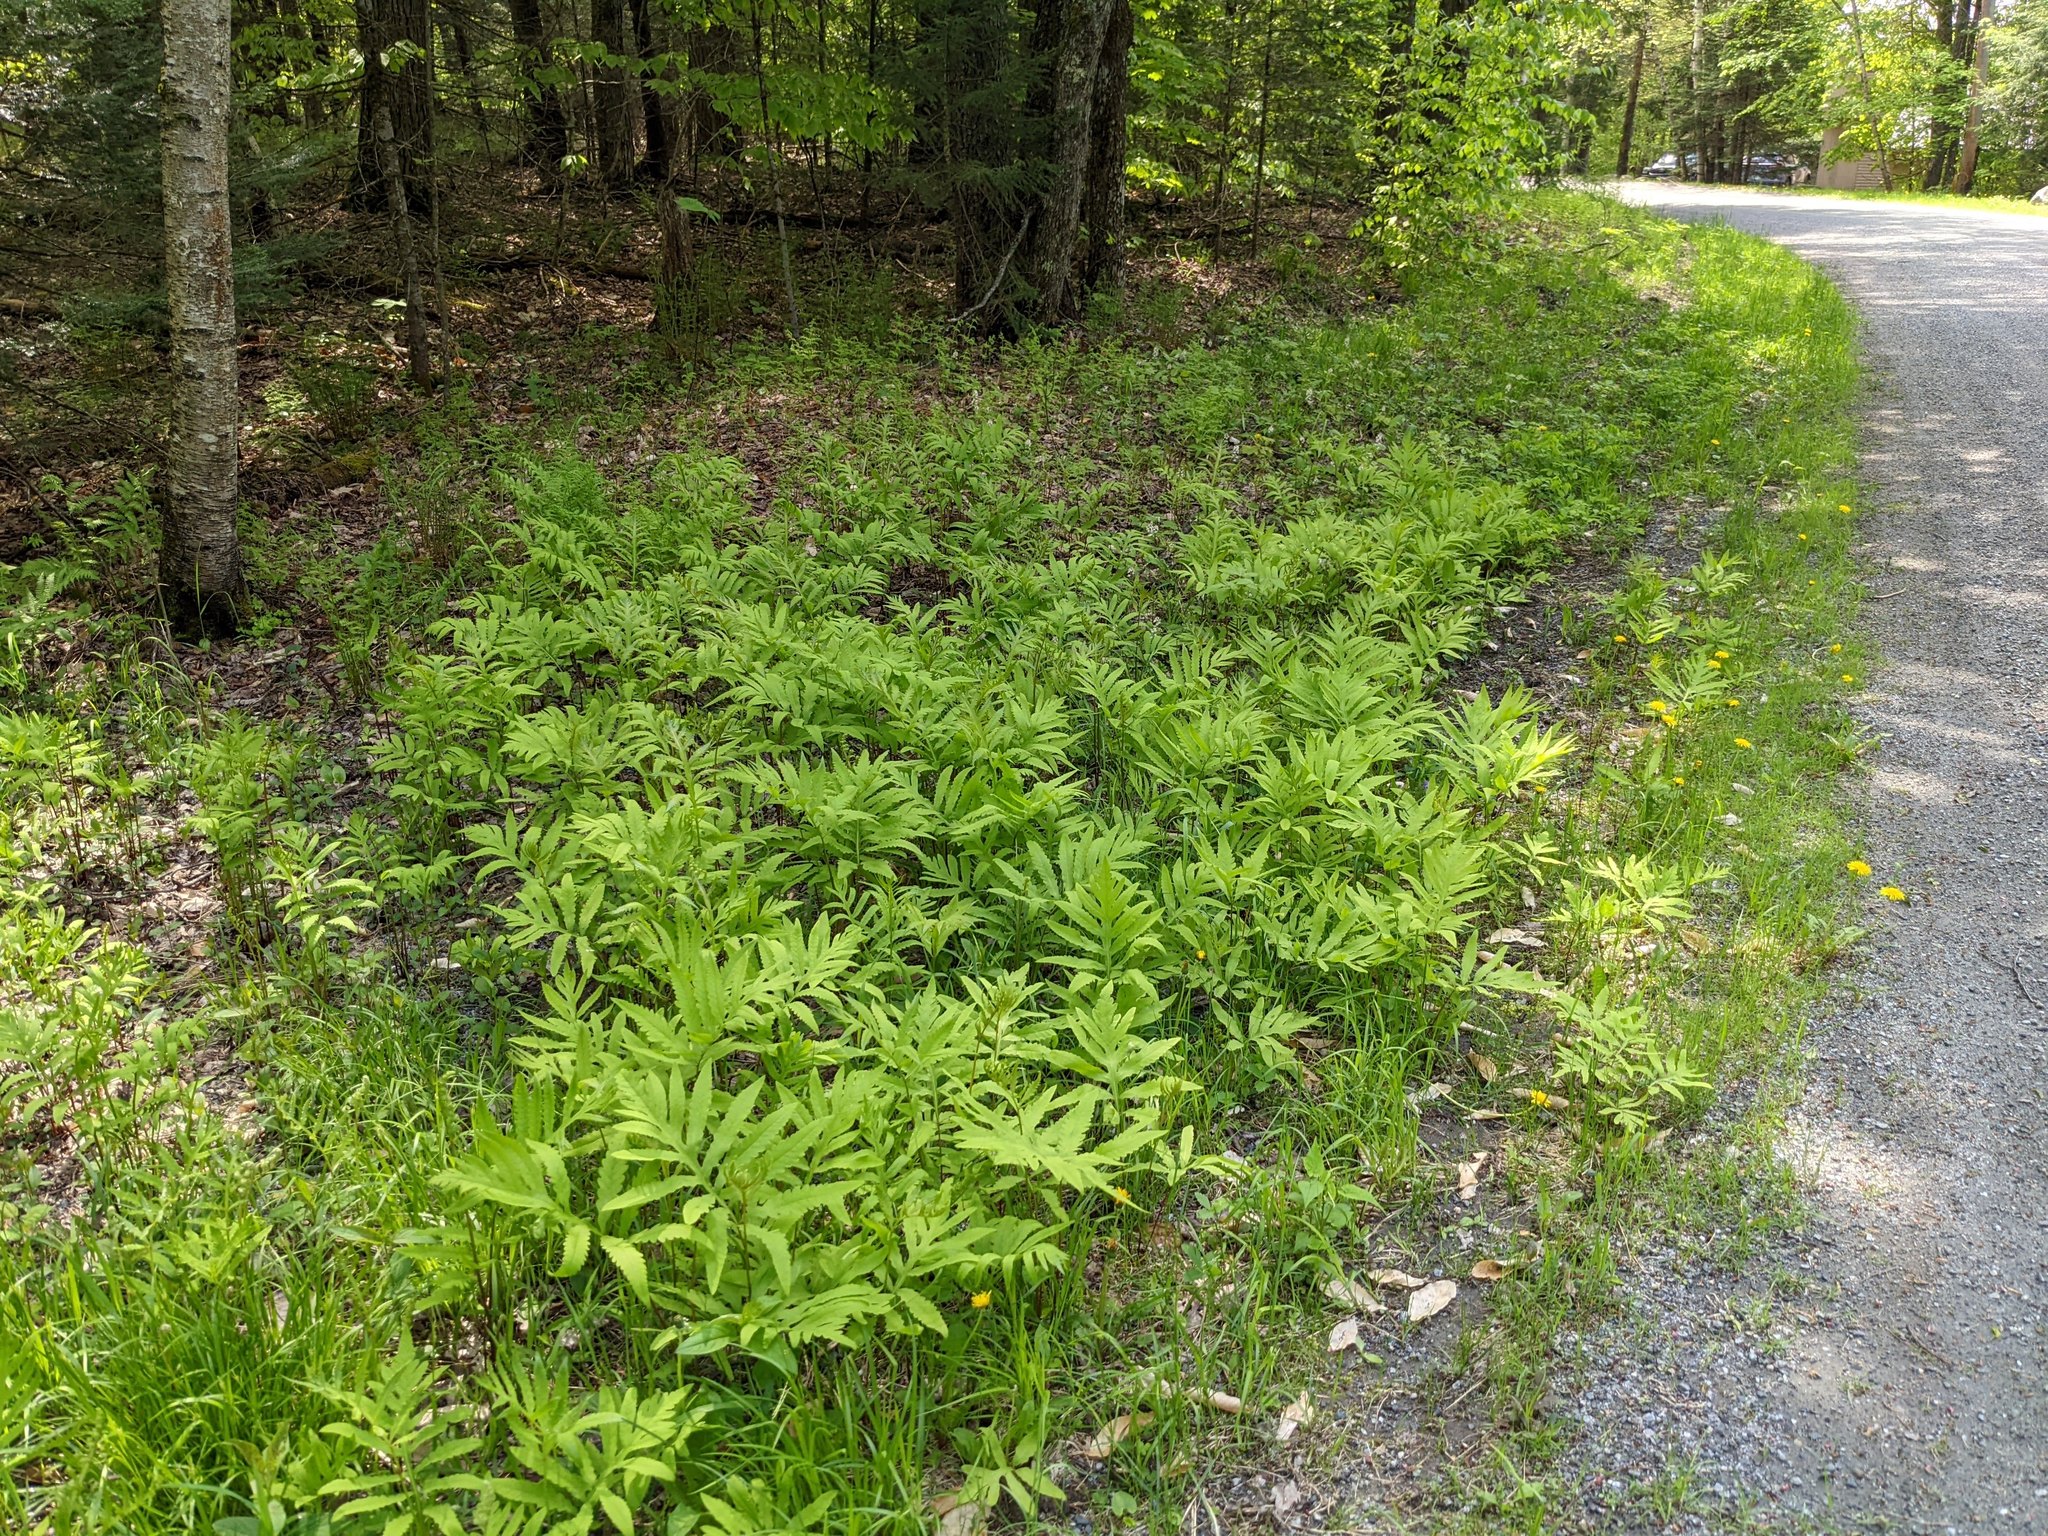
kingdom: Plantae
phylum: Tracheophyta
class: Polypodiopsida
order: Polypodiales
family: Onocleaceae
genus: Onoclea
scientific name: Onoclea sensibilis
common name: Sensitive fern
